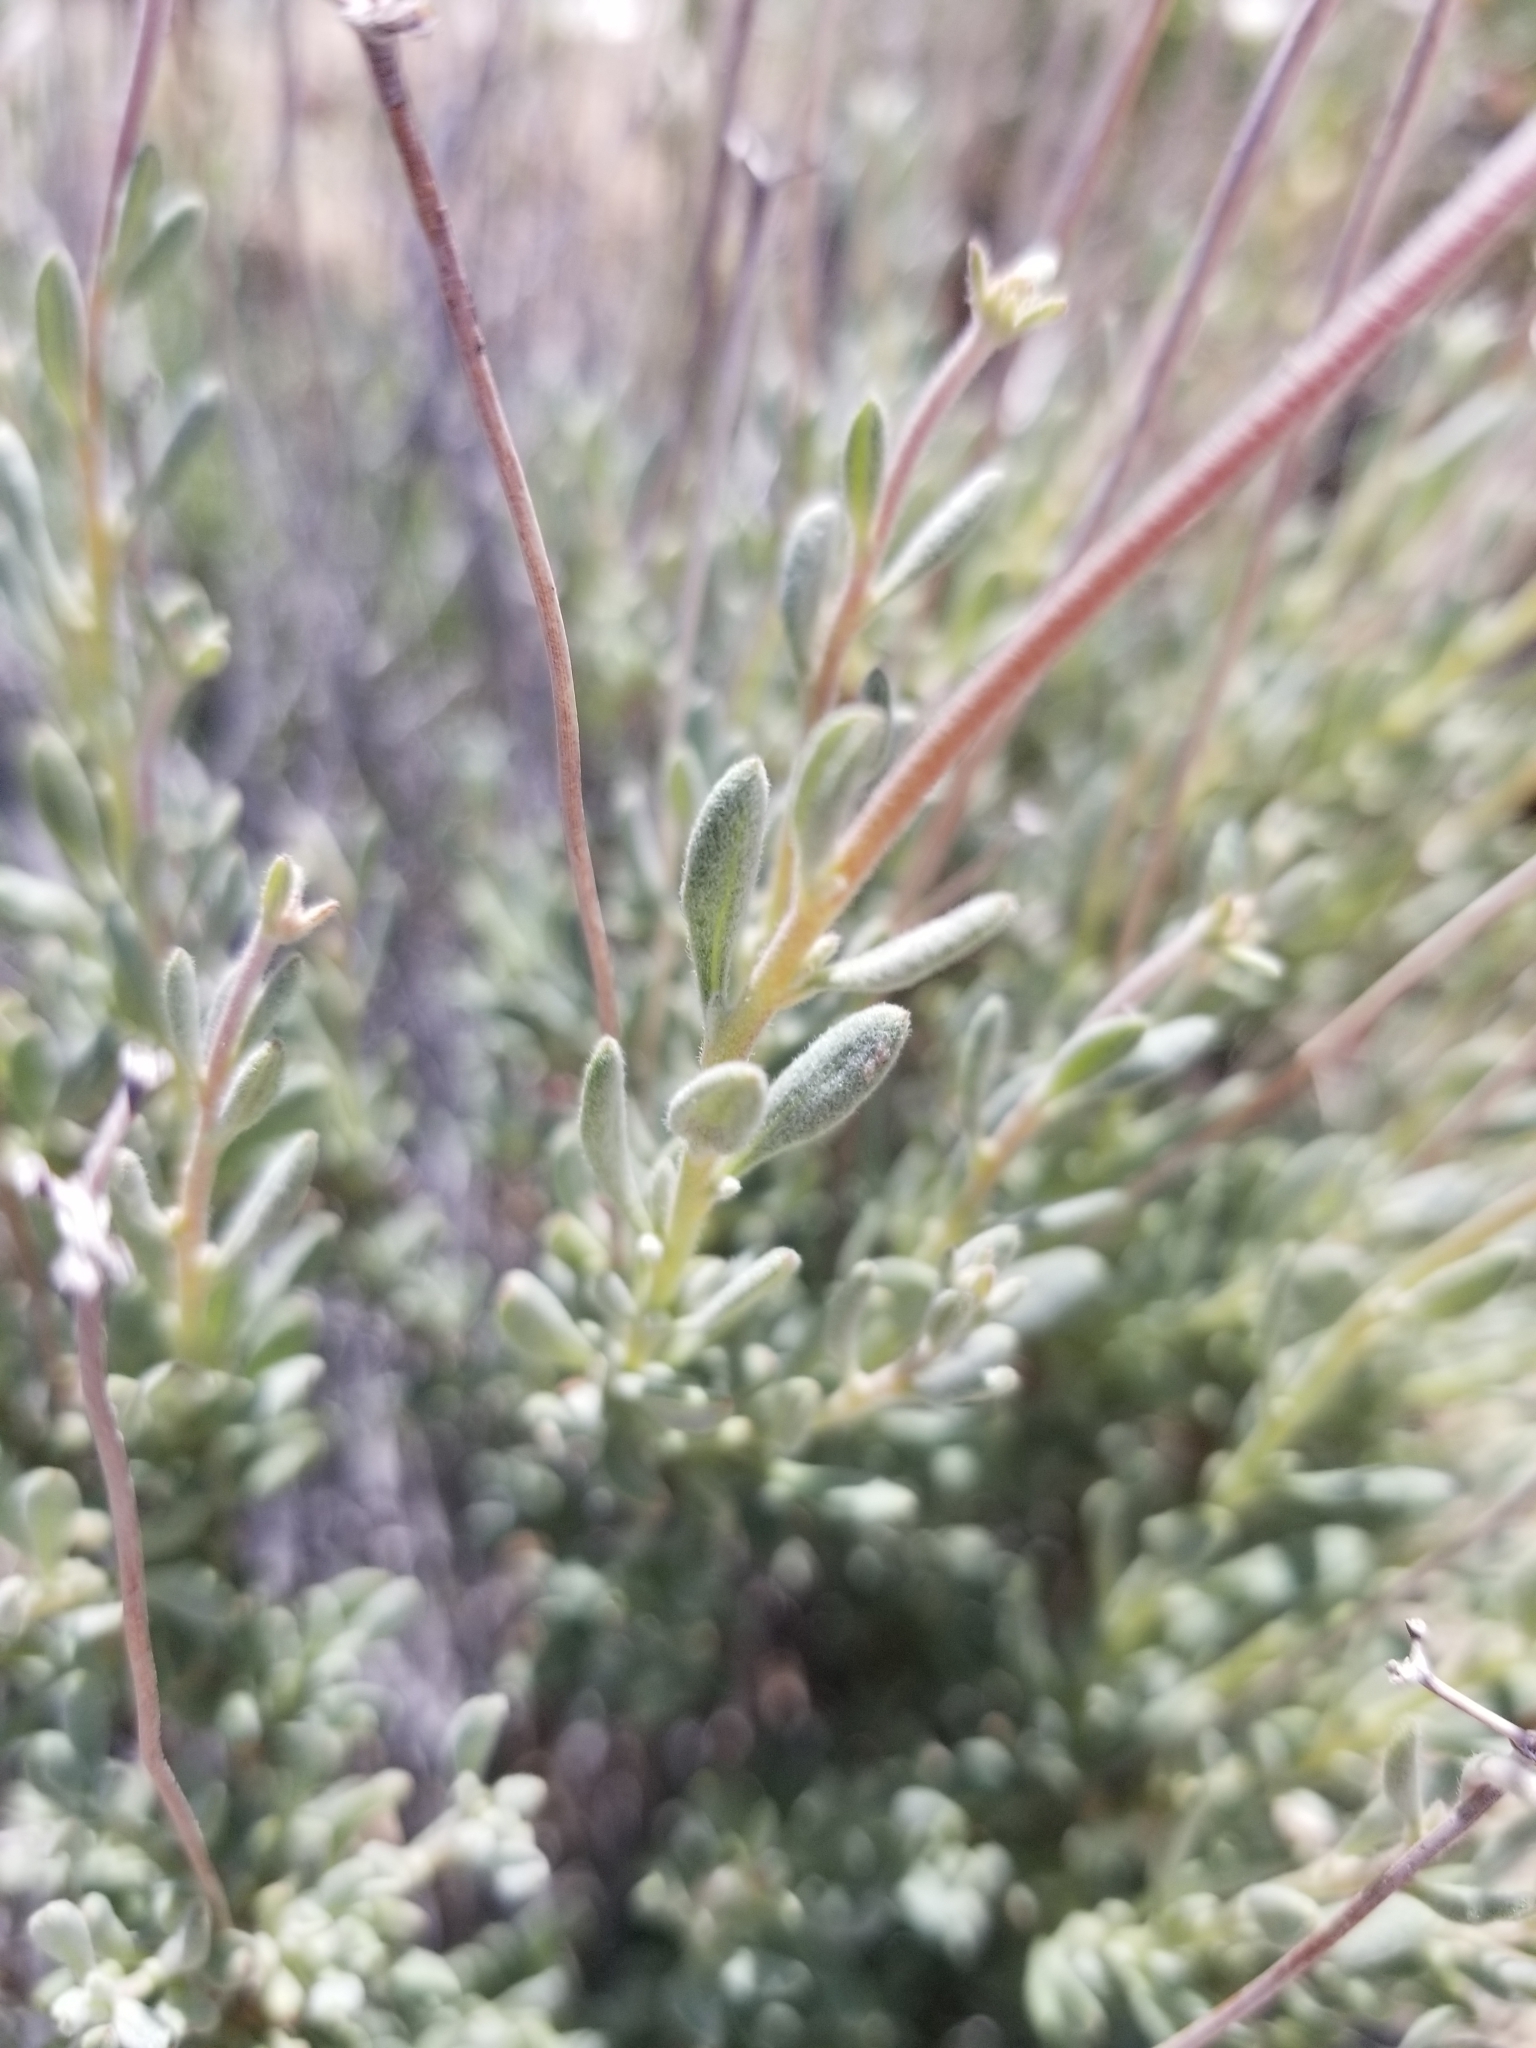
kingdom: Plantae
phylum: Tracheophyta
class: Magnoliopsida
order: Caryophyllales
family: Polygonaceae
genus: Eriogonum
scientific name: Eriogonum fasciculatum
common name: California wild buckwheat
